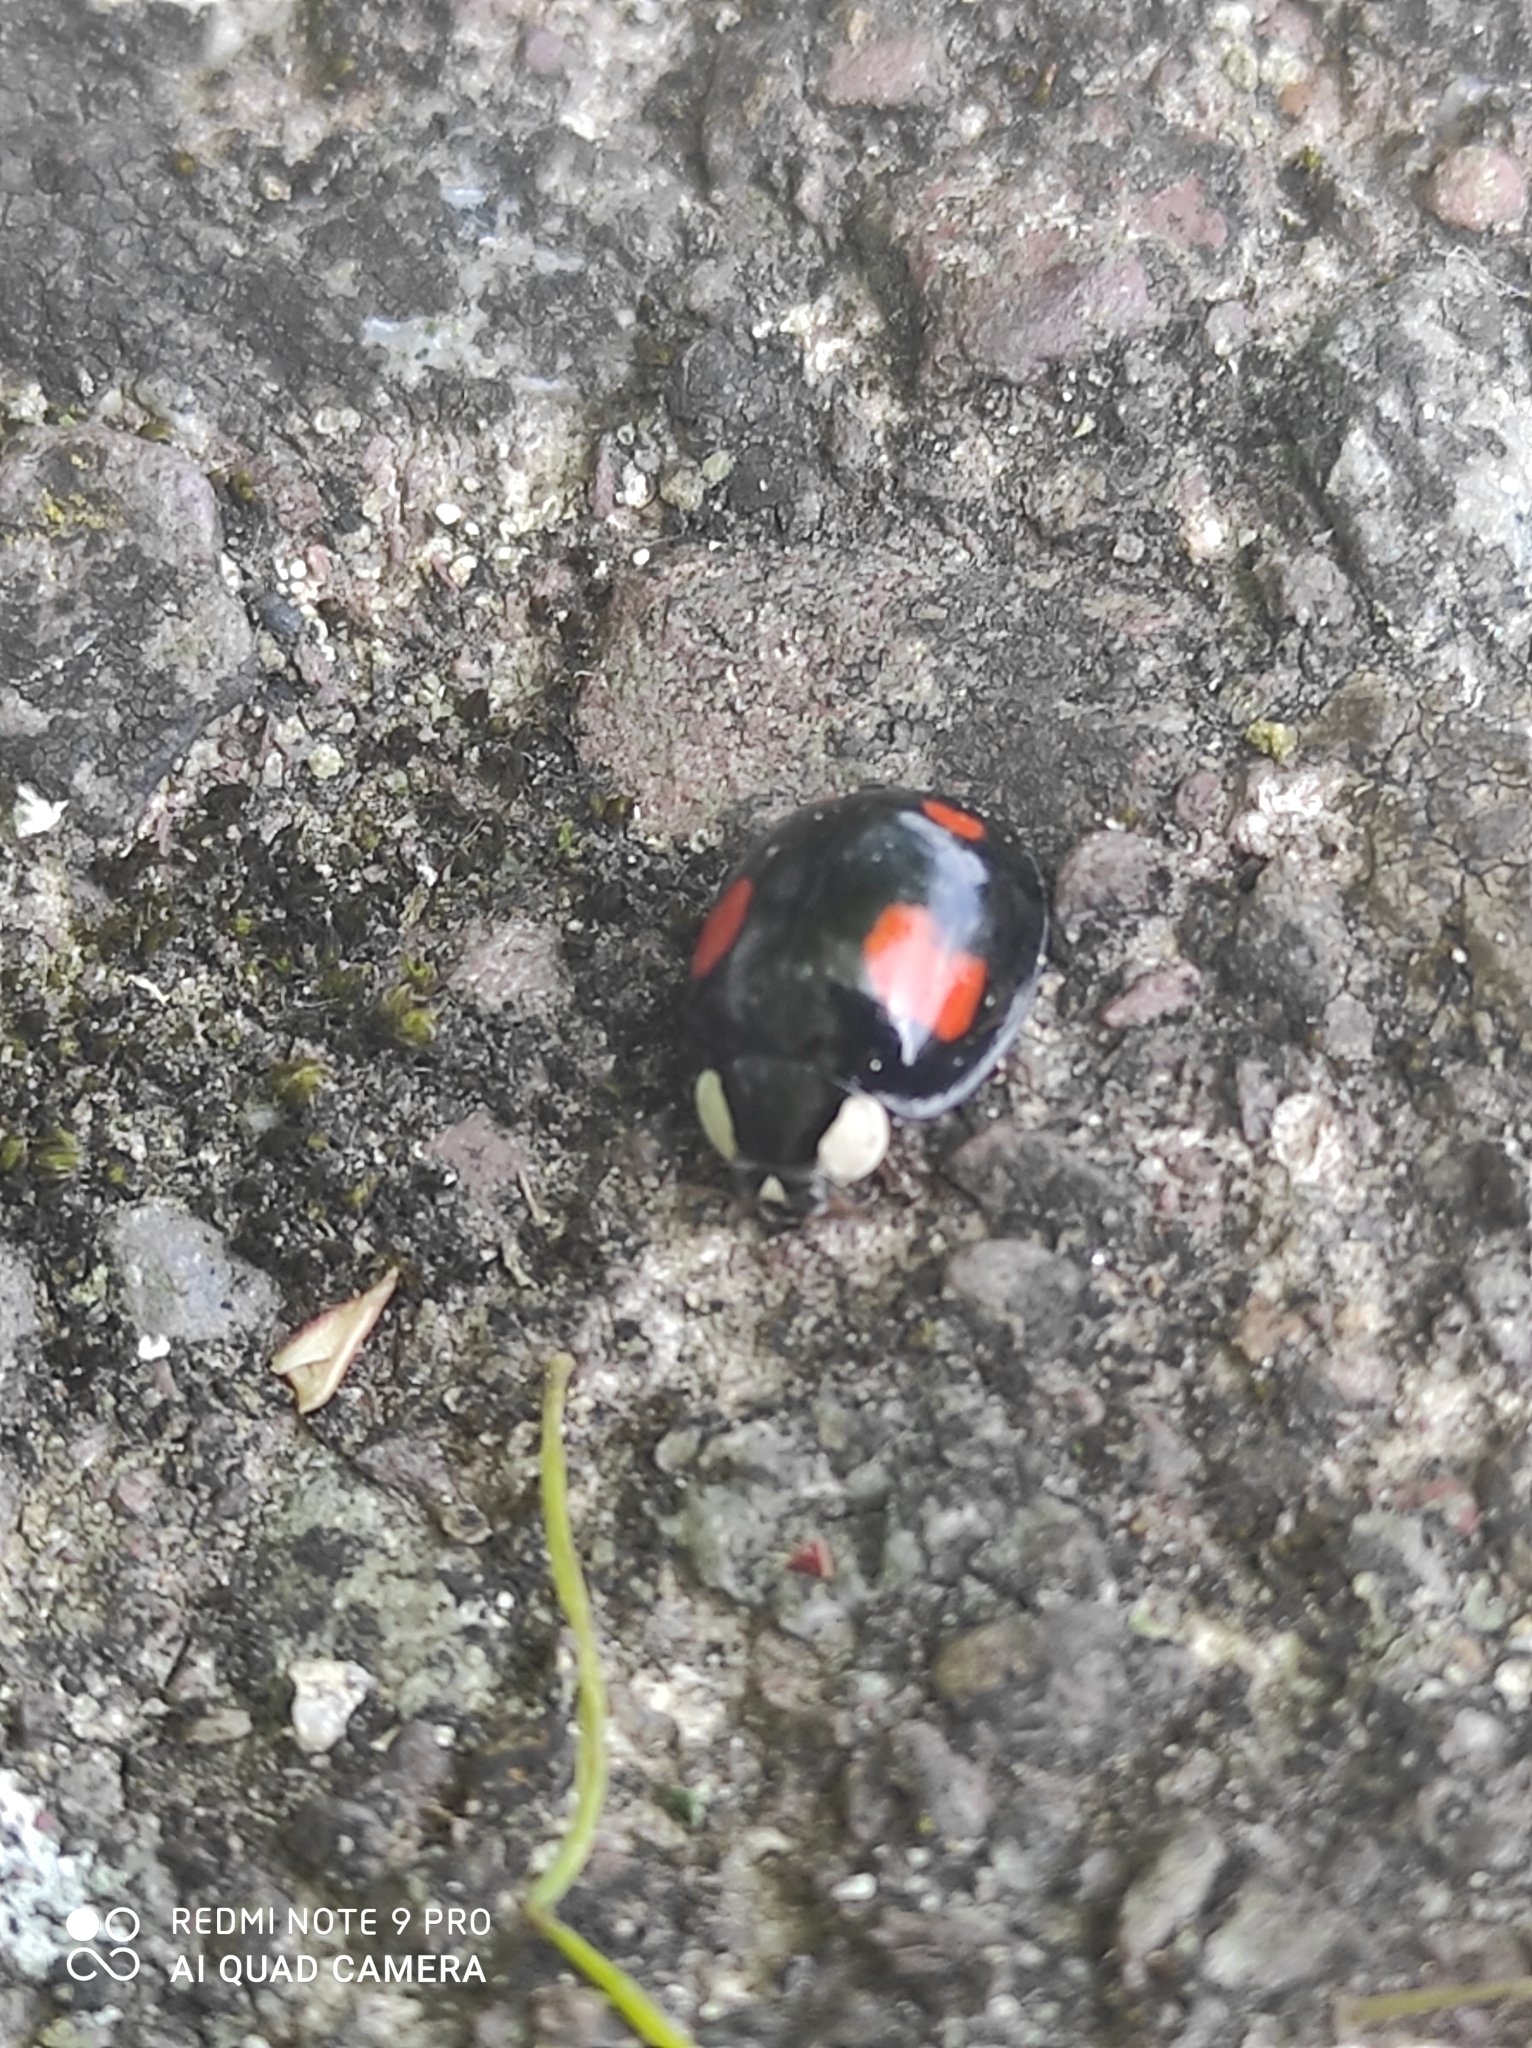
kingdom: Animalia
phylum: Arthropoda
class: Insecta
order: Coleoptera
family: Coccinellidae
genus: Harmonia
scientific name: Harmonia axyridis
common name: Harlequin ladybird
